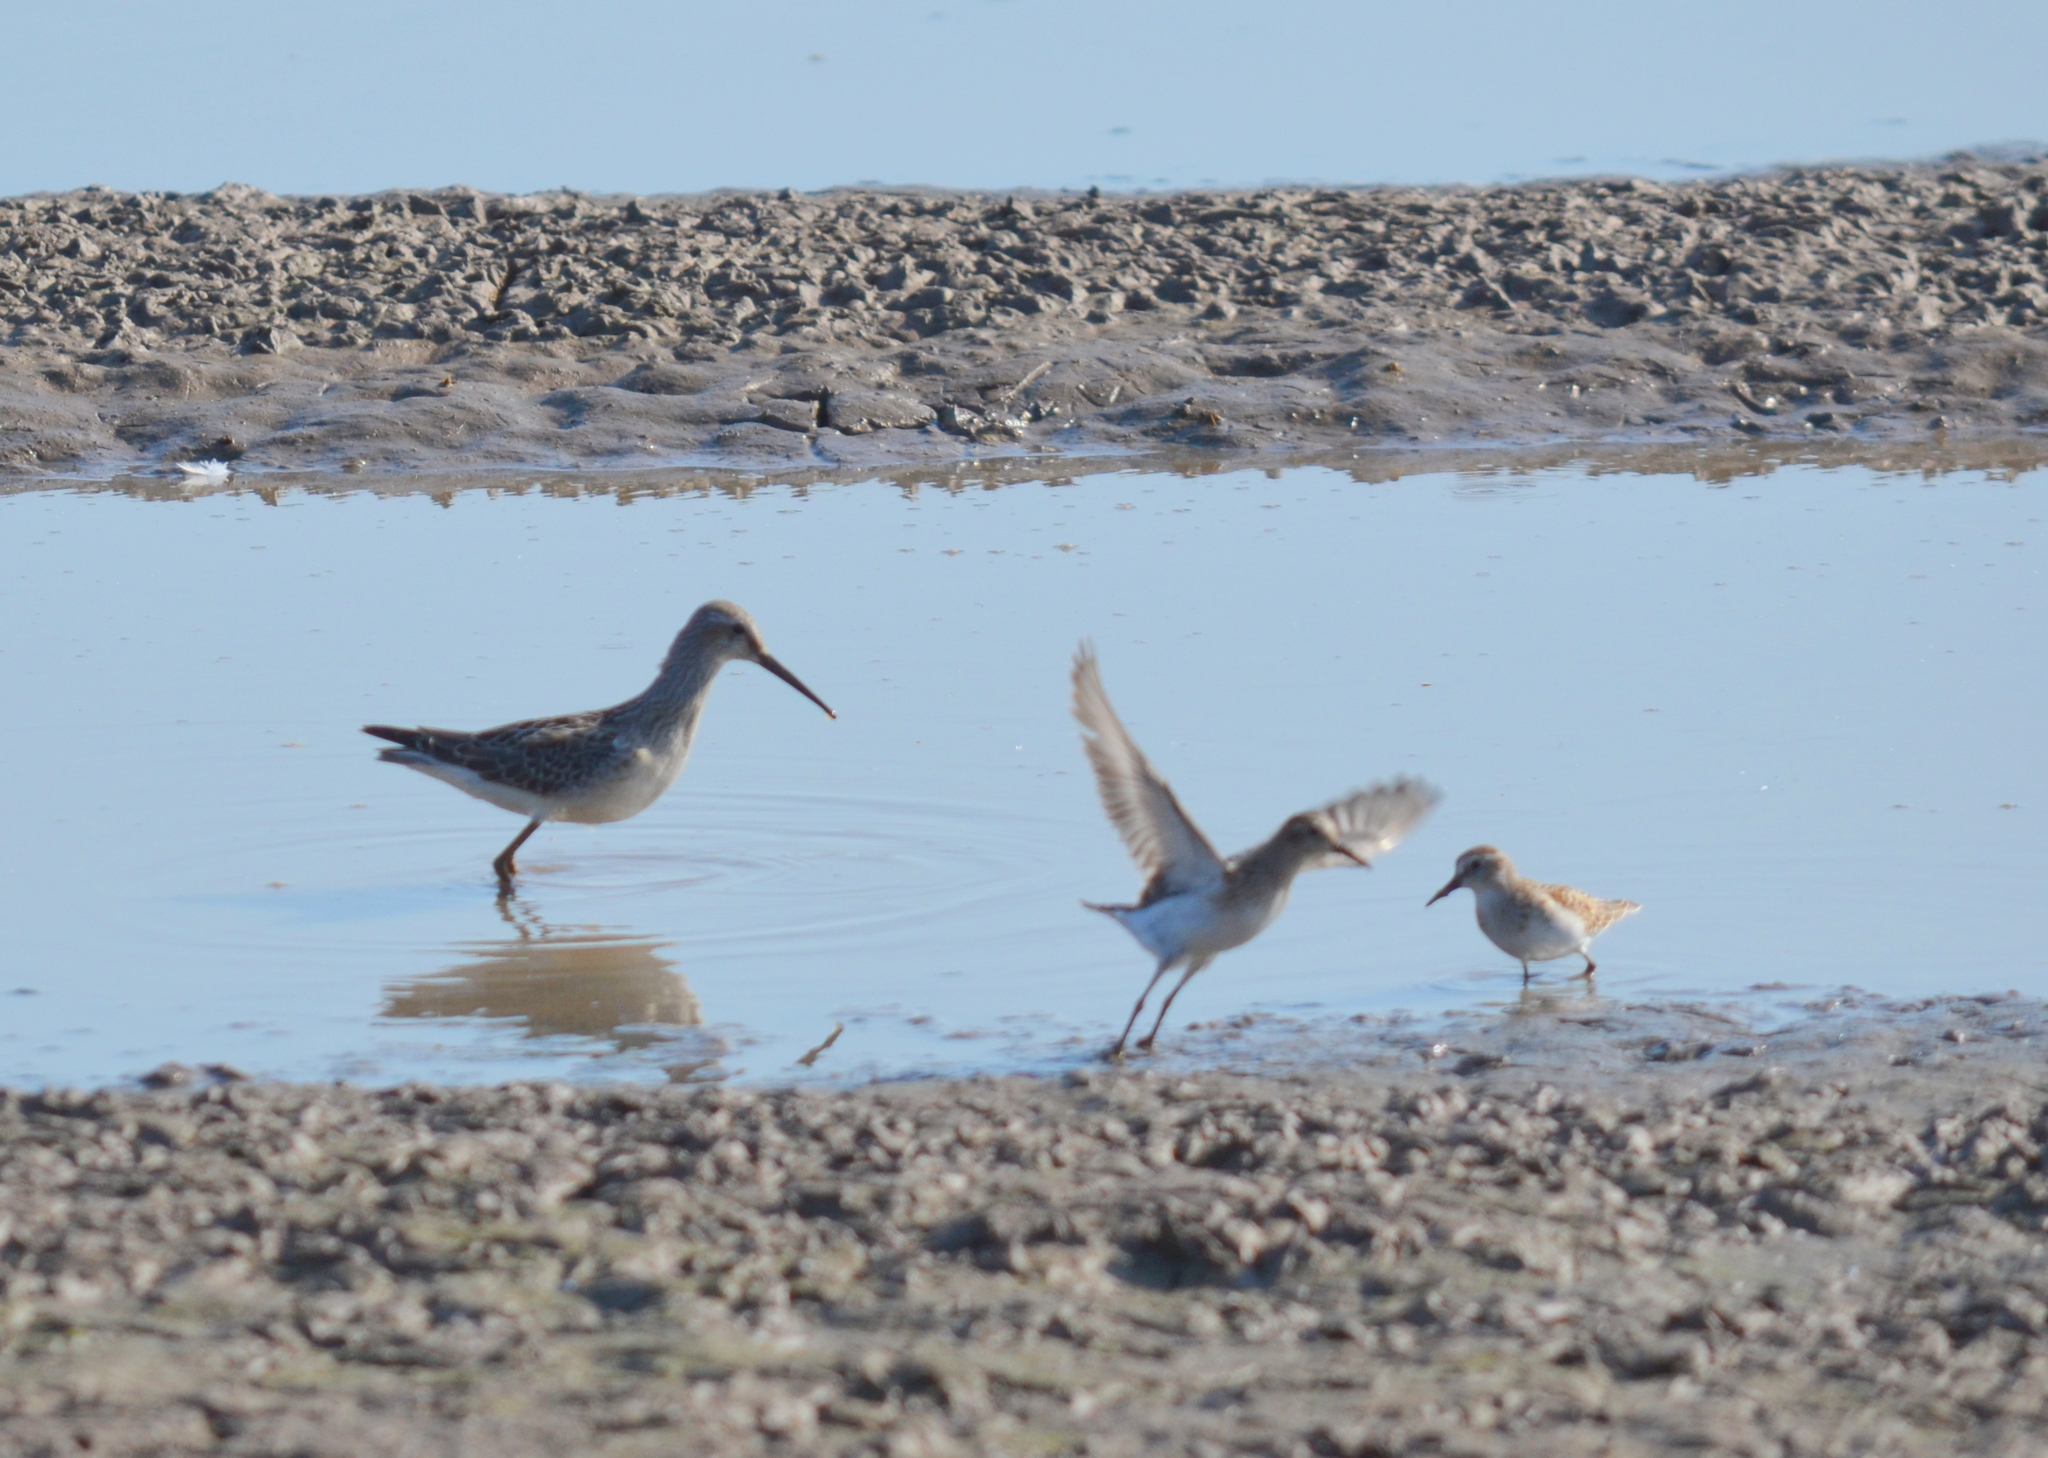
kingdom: Animalia
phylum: Chordata
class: Aves
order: Charadriiformes
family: Scolopacidae
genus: Calidris
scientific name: Calidris himantopus
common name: Stilt sandpiper
